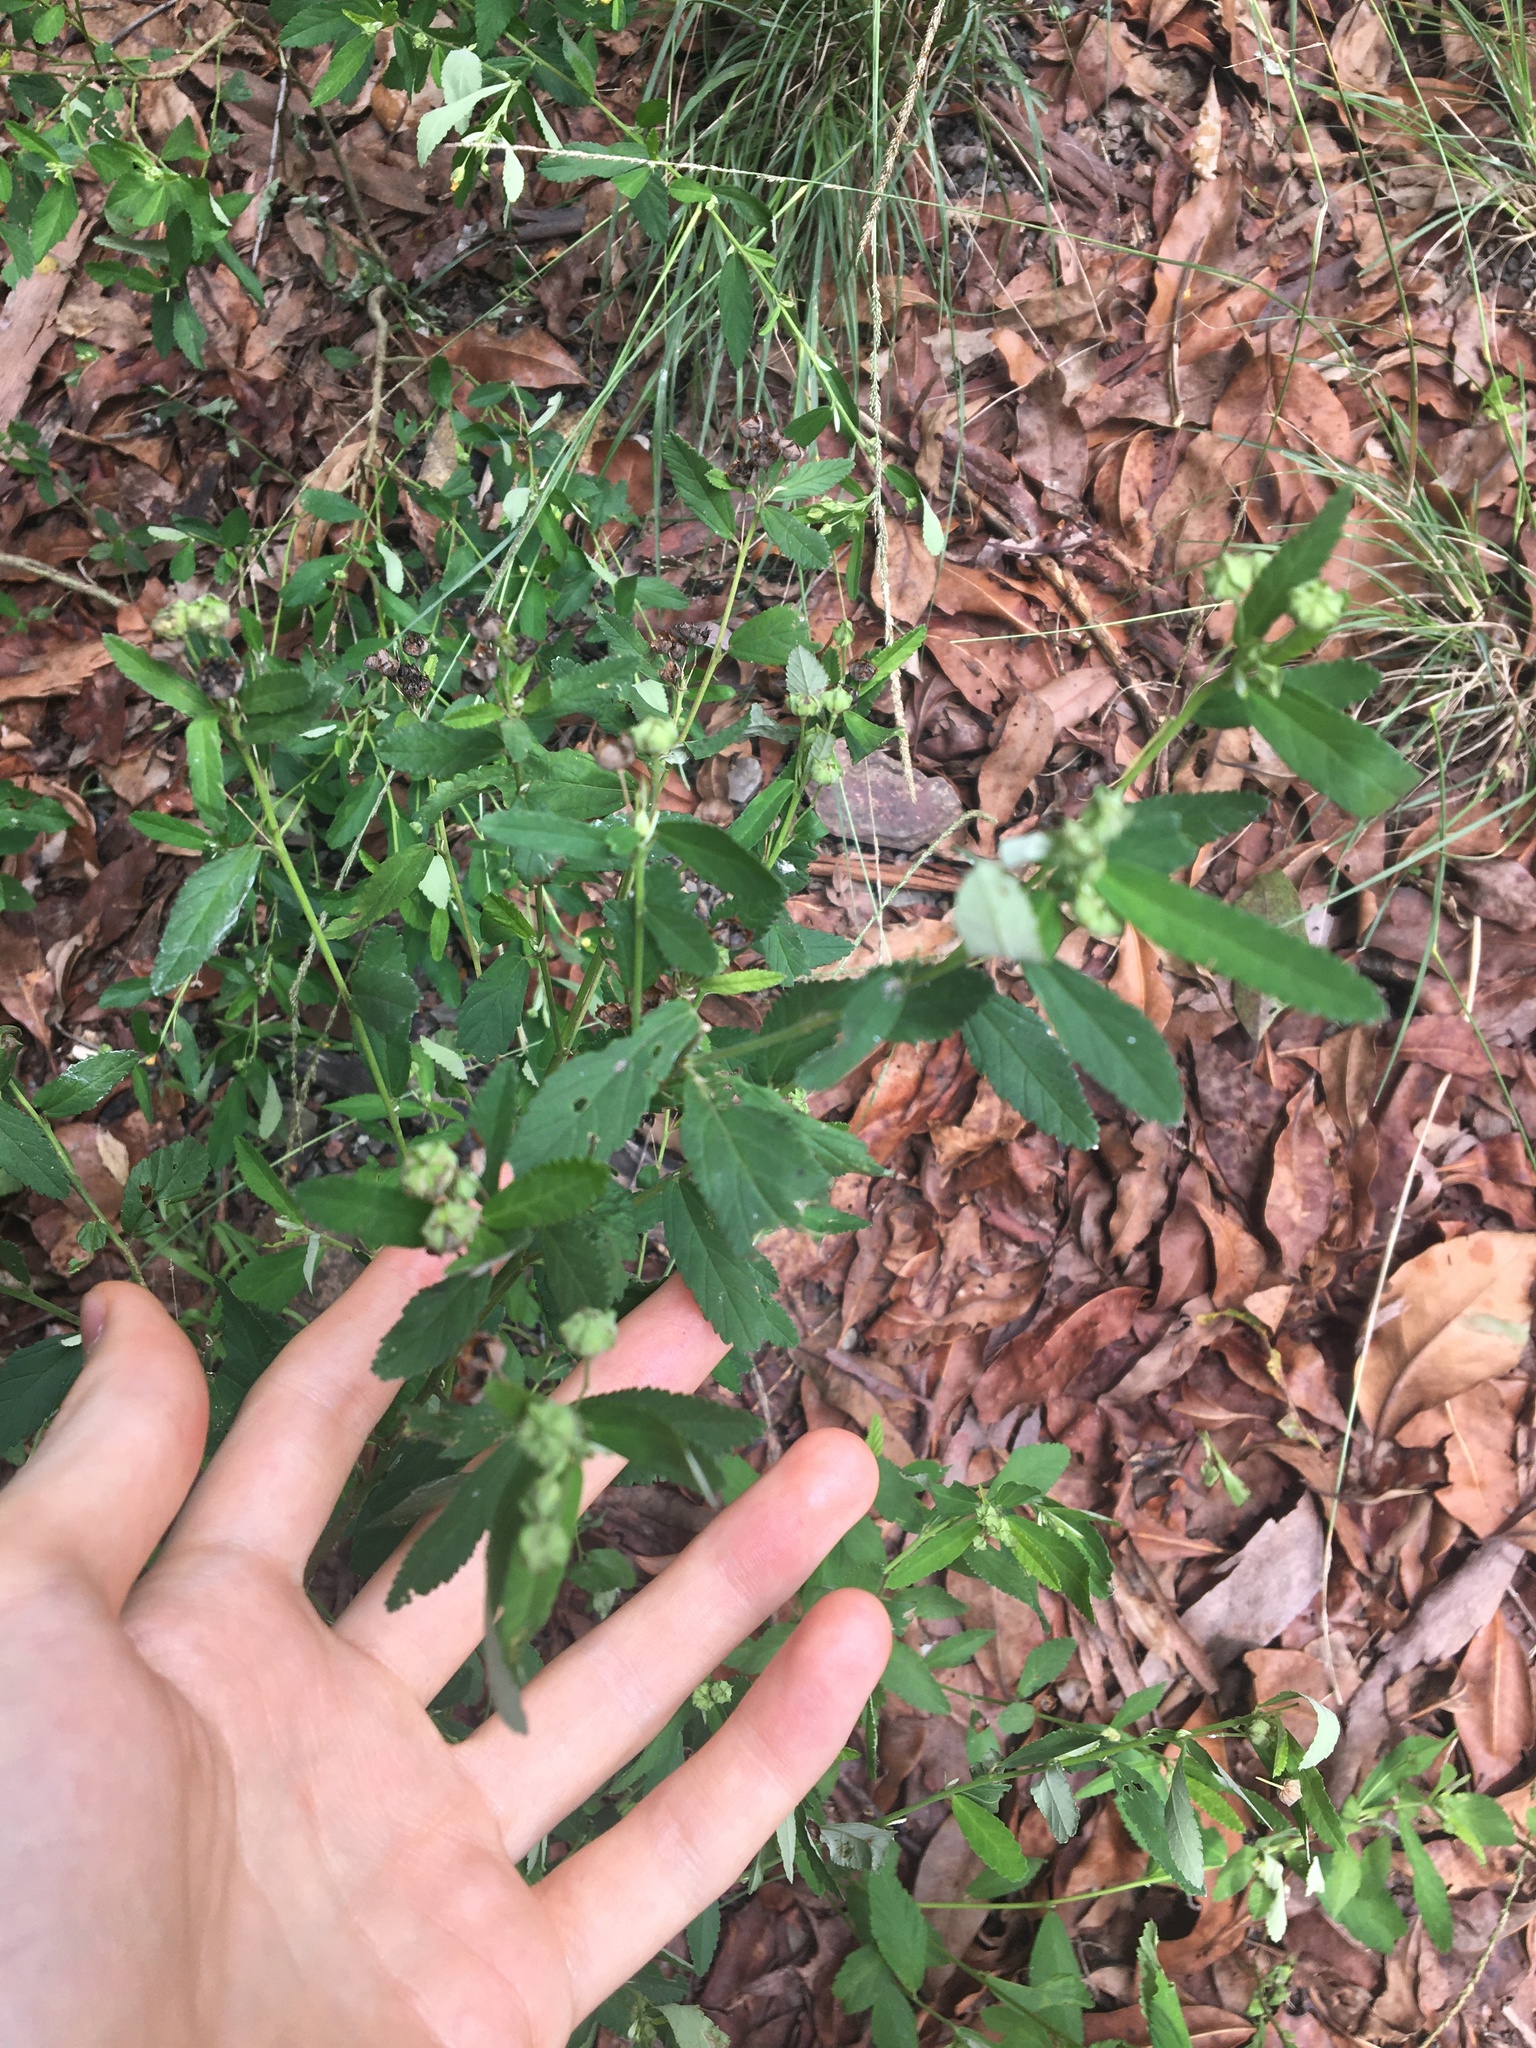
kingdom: Plantae
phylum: Tracheophyta
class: Magnoliopsida
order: Malvales
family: Malvaceae
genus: Sida
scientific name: Sida rhombifolia
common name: Queensland-hemp
